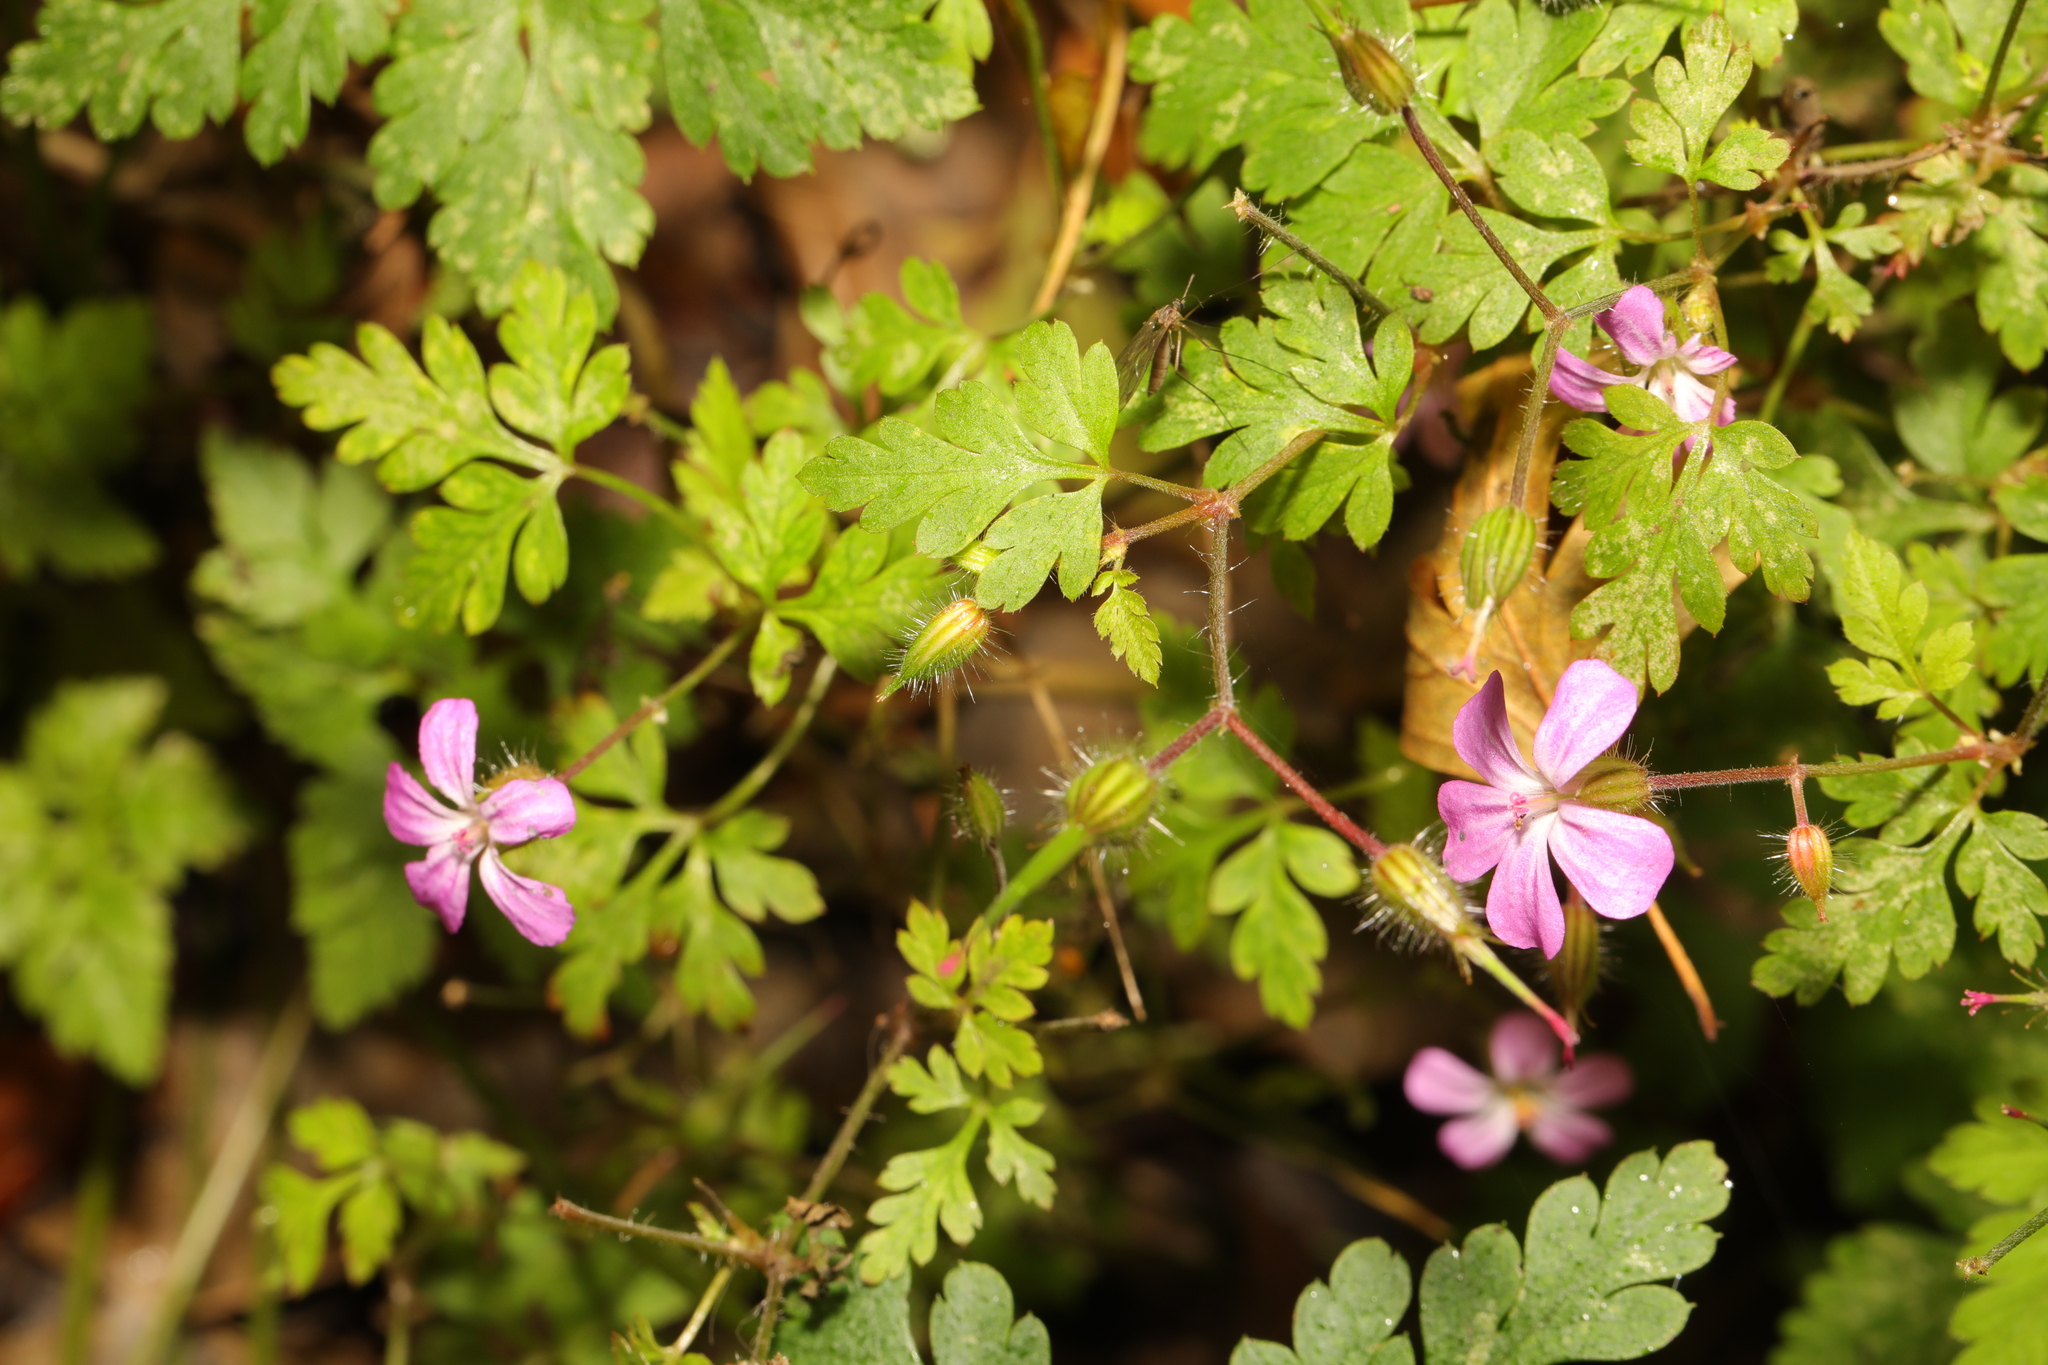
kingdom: Plantae
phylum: Tracheophyta
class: Magnoliopsida
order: Geraniales
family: Geraniaceae
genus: Geranium
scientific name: Geranium robertianum
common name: Herb-robert
